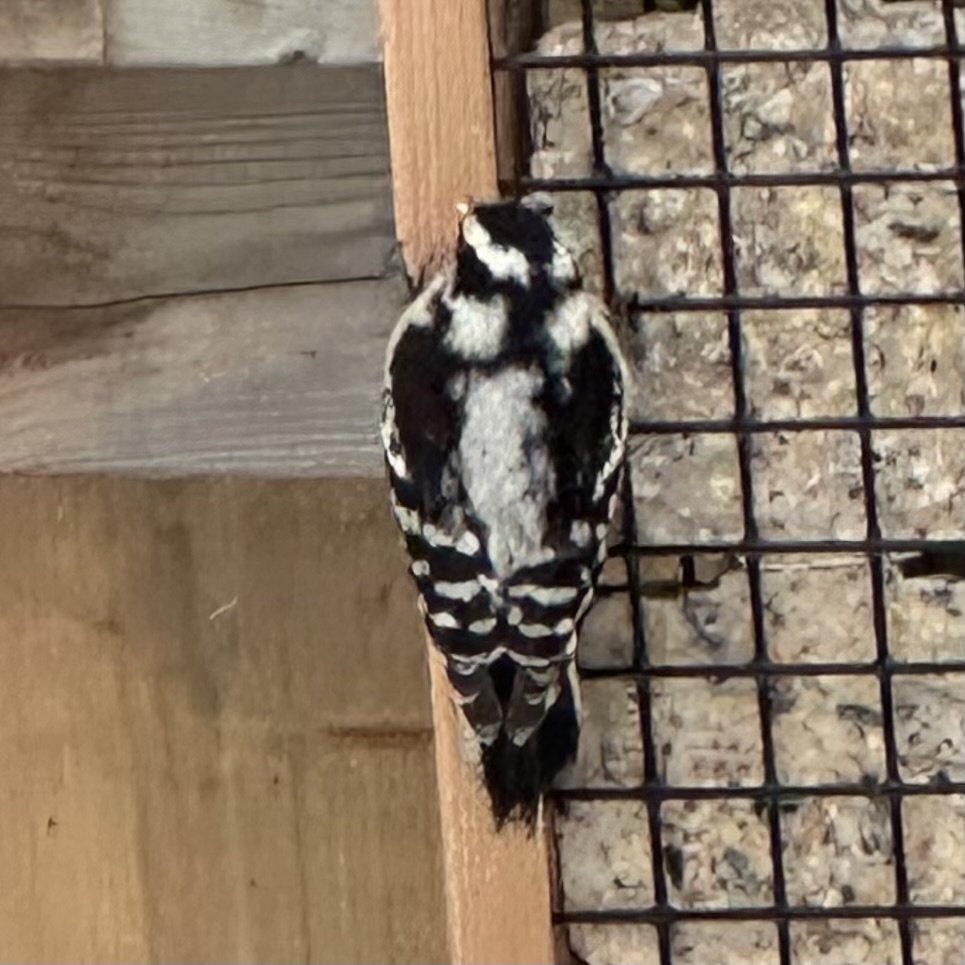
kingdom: Animalia
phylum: Chordata
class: Aves
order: Piciformes
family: Picidae
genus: Dryobates
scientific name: Dryobates pubescens
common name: Downy woodpecker
